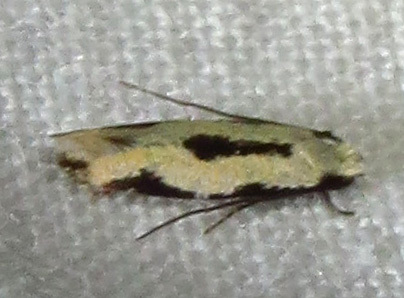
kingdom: Animalia
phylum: Arthropoda
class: Insecta
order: Lepidoptera
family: Meessiidae
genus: Mea
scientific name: Mea bipunctella
